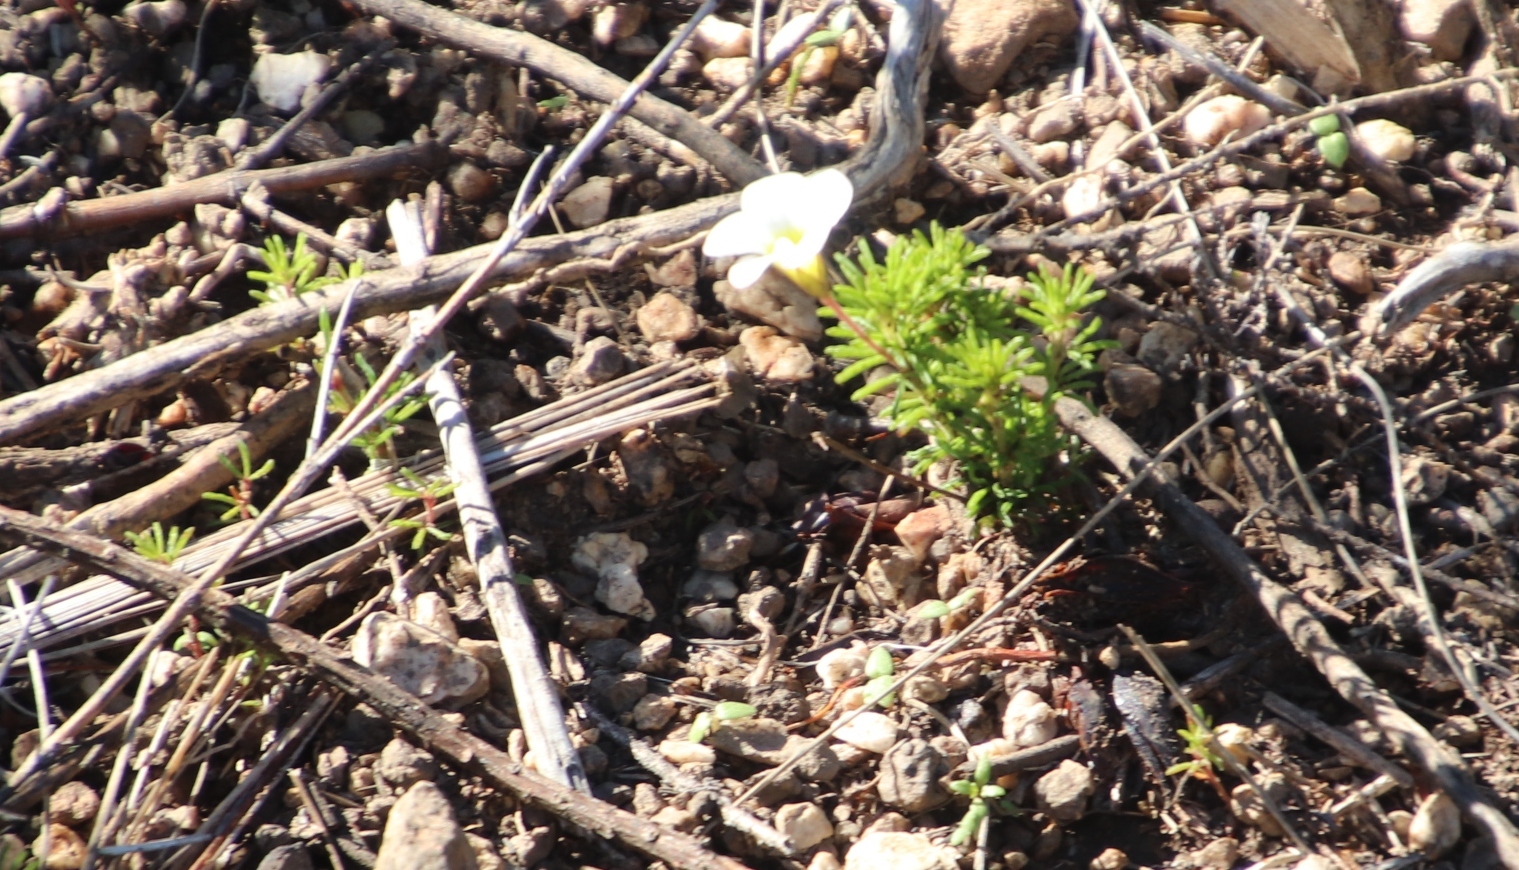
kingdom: Plantae
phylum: Tracheophyta
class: Magnoliopsida
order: Oxalidales
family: Oxalidaceae
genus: Oxalis
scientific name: Oxalis tenuifolia
